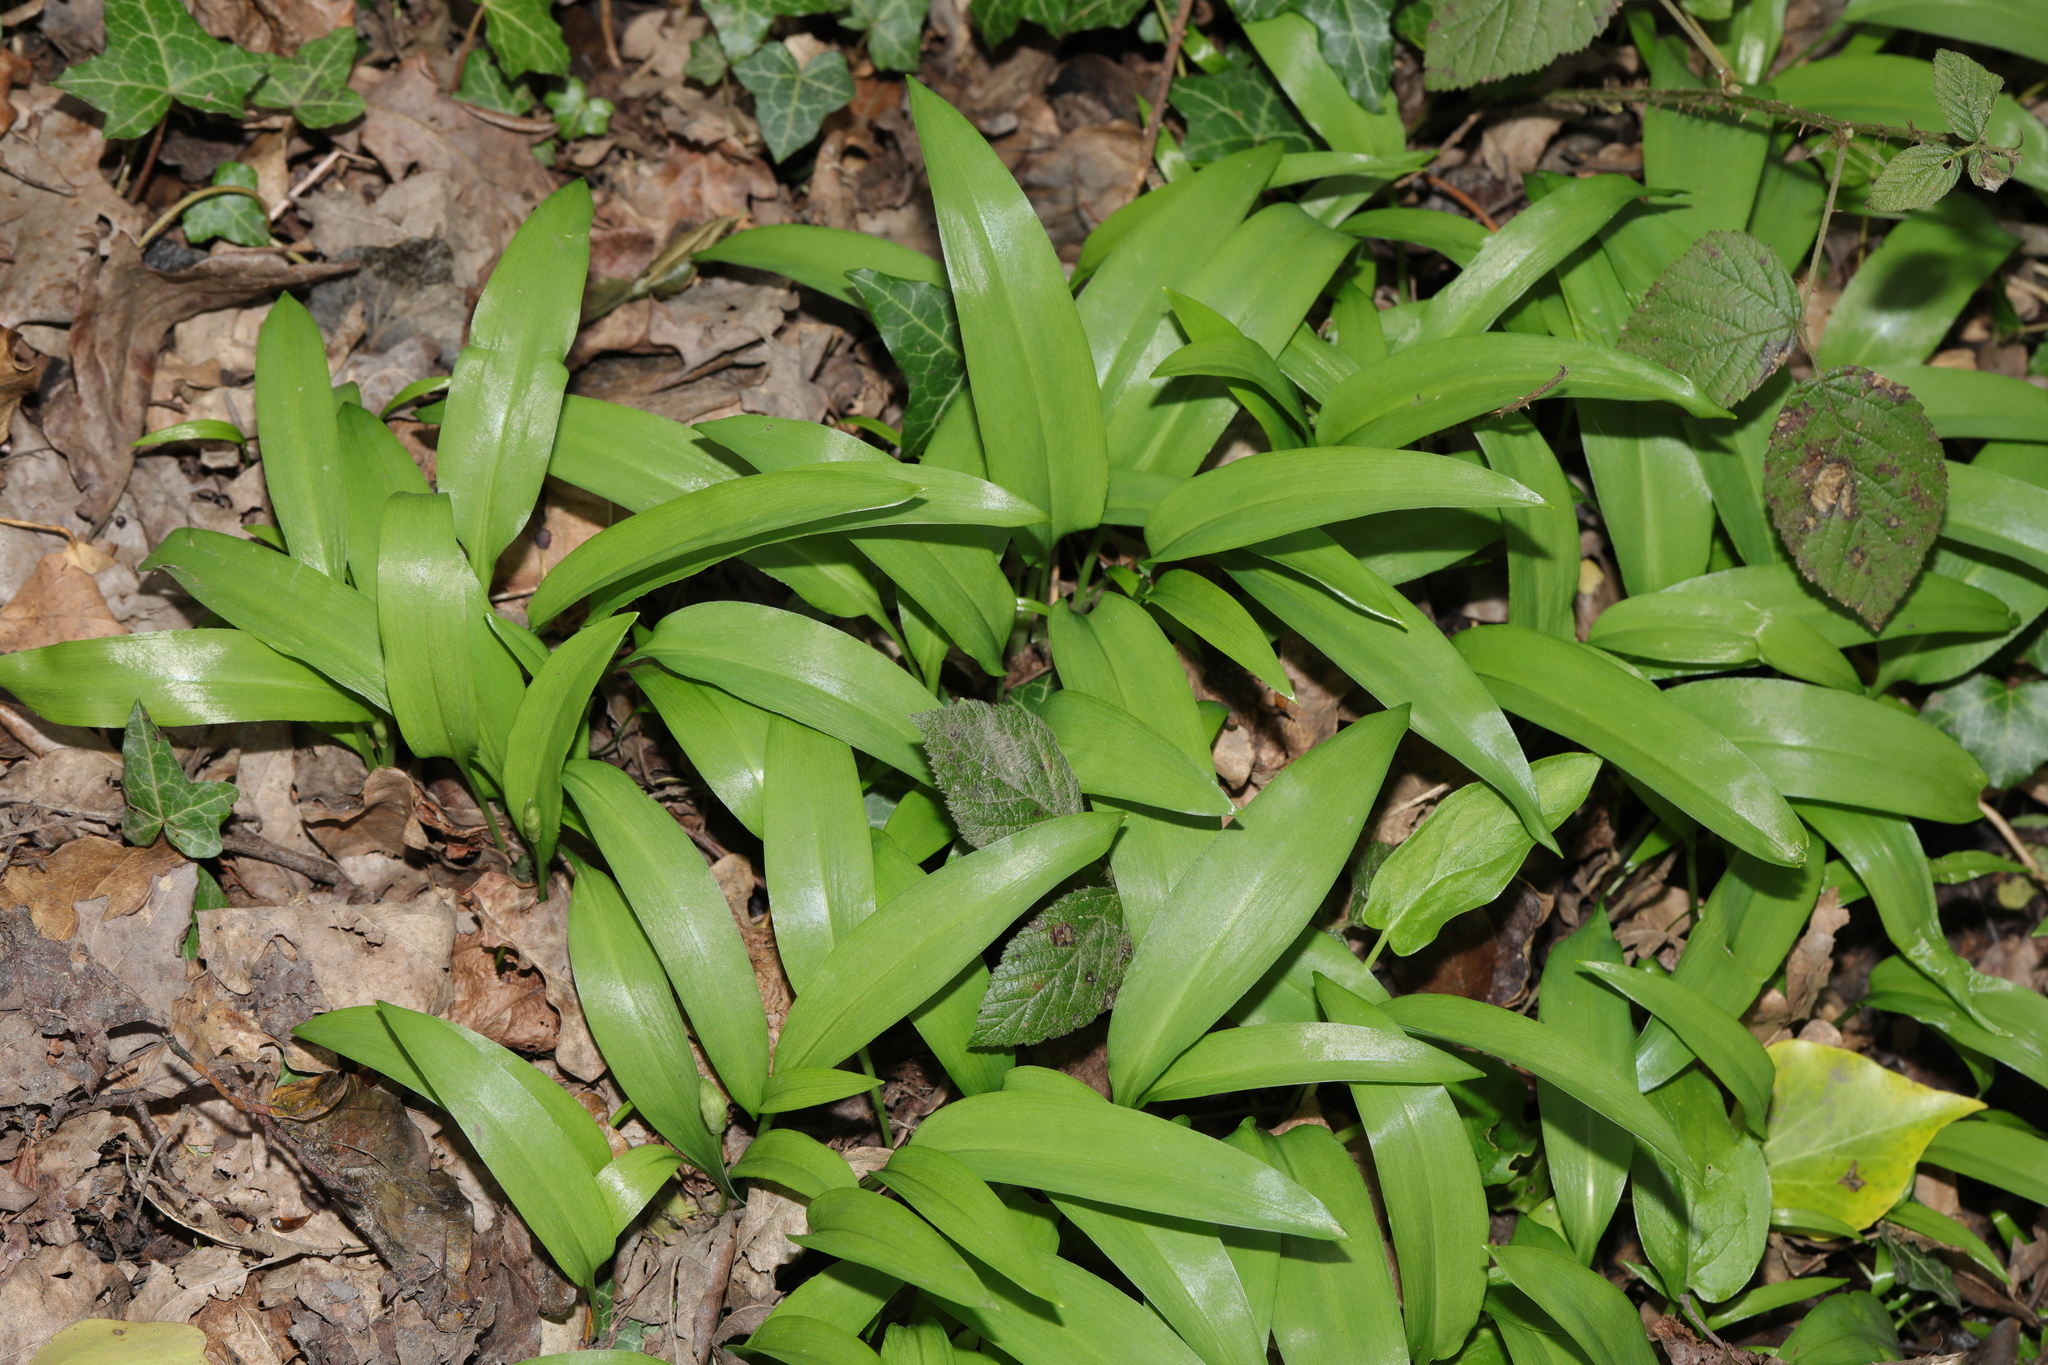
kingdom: Plantae
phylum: Tracheophyta
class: Liliopsida
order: Asparagales
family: Amaryllidaceae
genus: Allium
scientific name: Allium ursinum
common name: Ramsons
